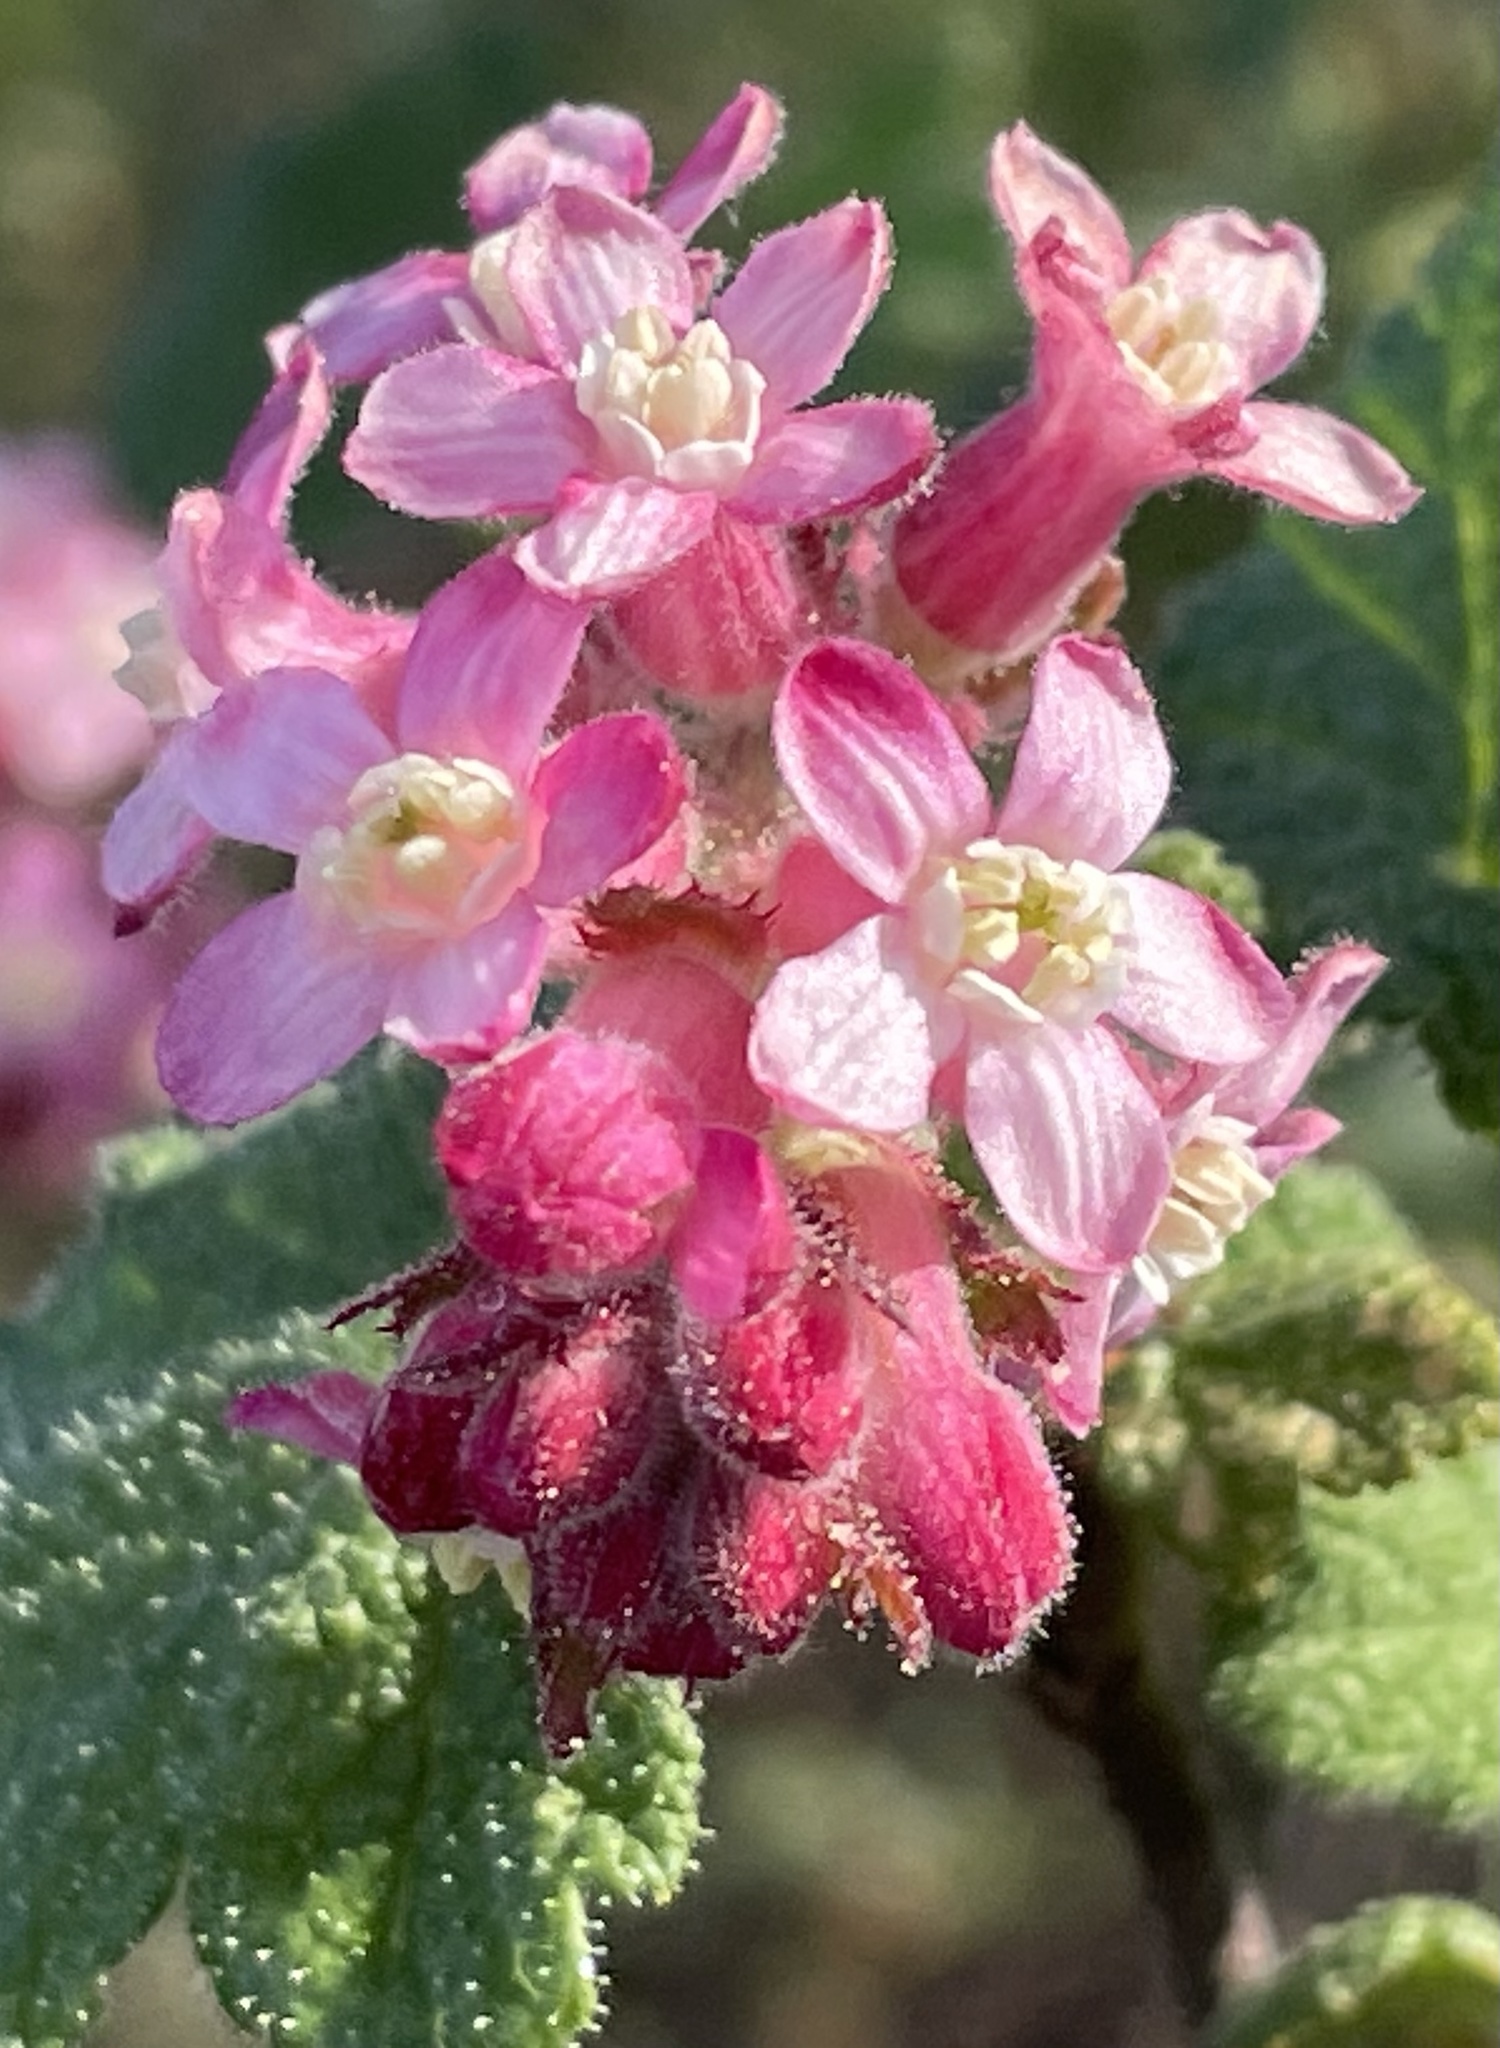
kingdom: Plantae
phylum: Tracheophyta
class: Magnoliopsida
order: Saxifragales
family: Grossulariaceae
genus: Ribes
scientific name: Ribes malvaceum
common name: Chaparral currant
